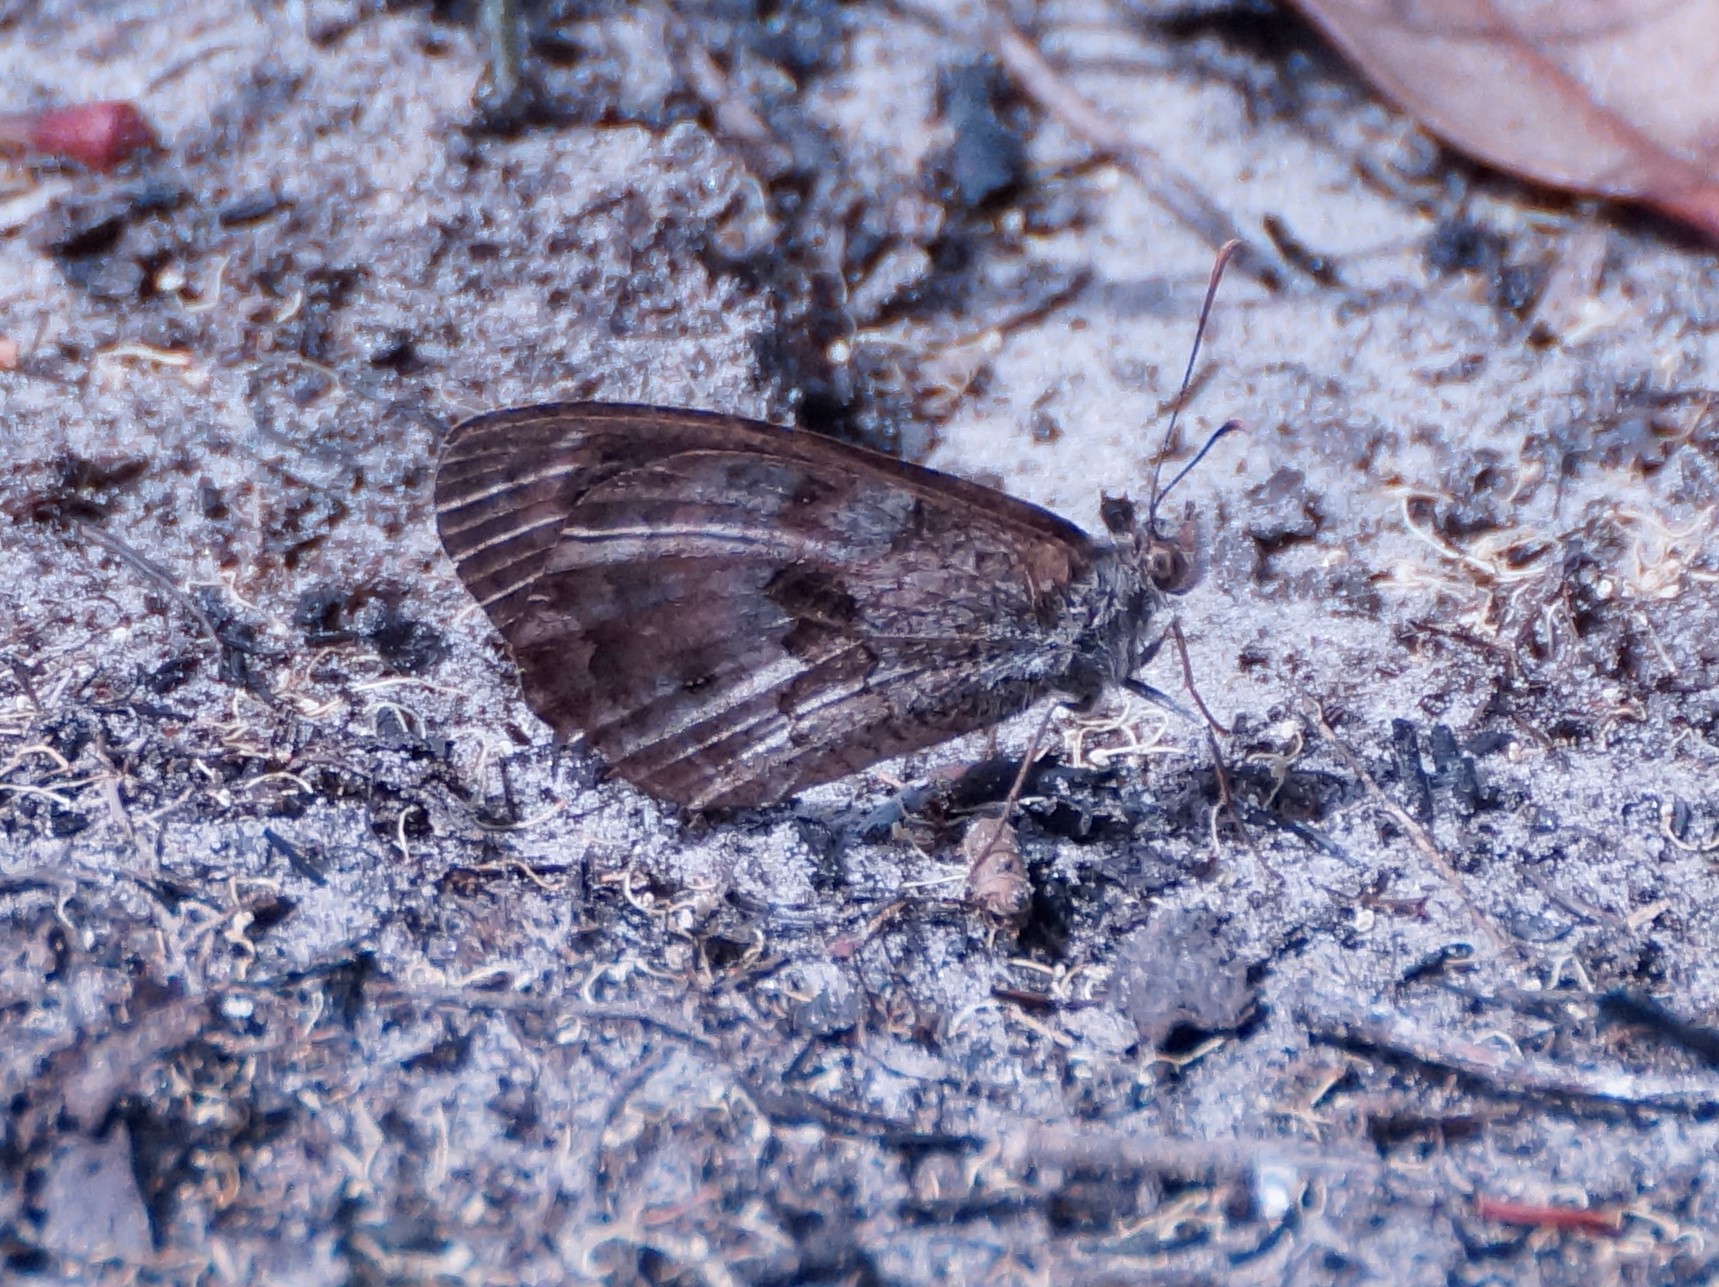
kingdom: Animalia
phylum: Arthropoda
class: Insecta
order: Lepidoptera
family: Nymphalidae
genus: Geitoneura
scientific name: Geitoneura klugii
